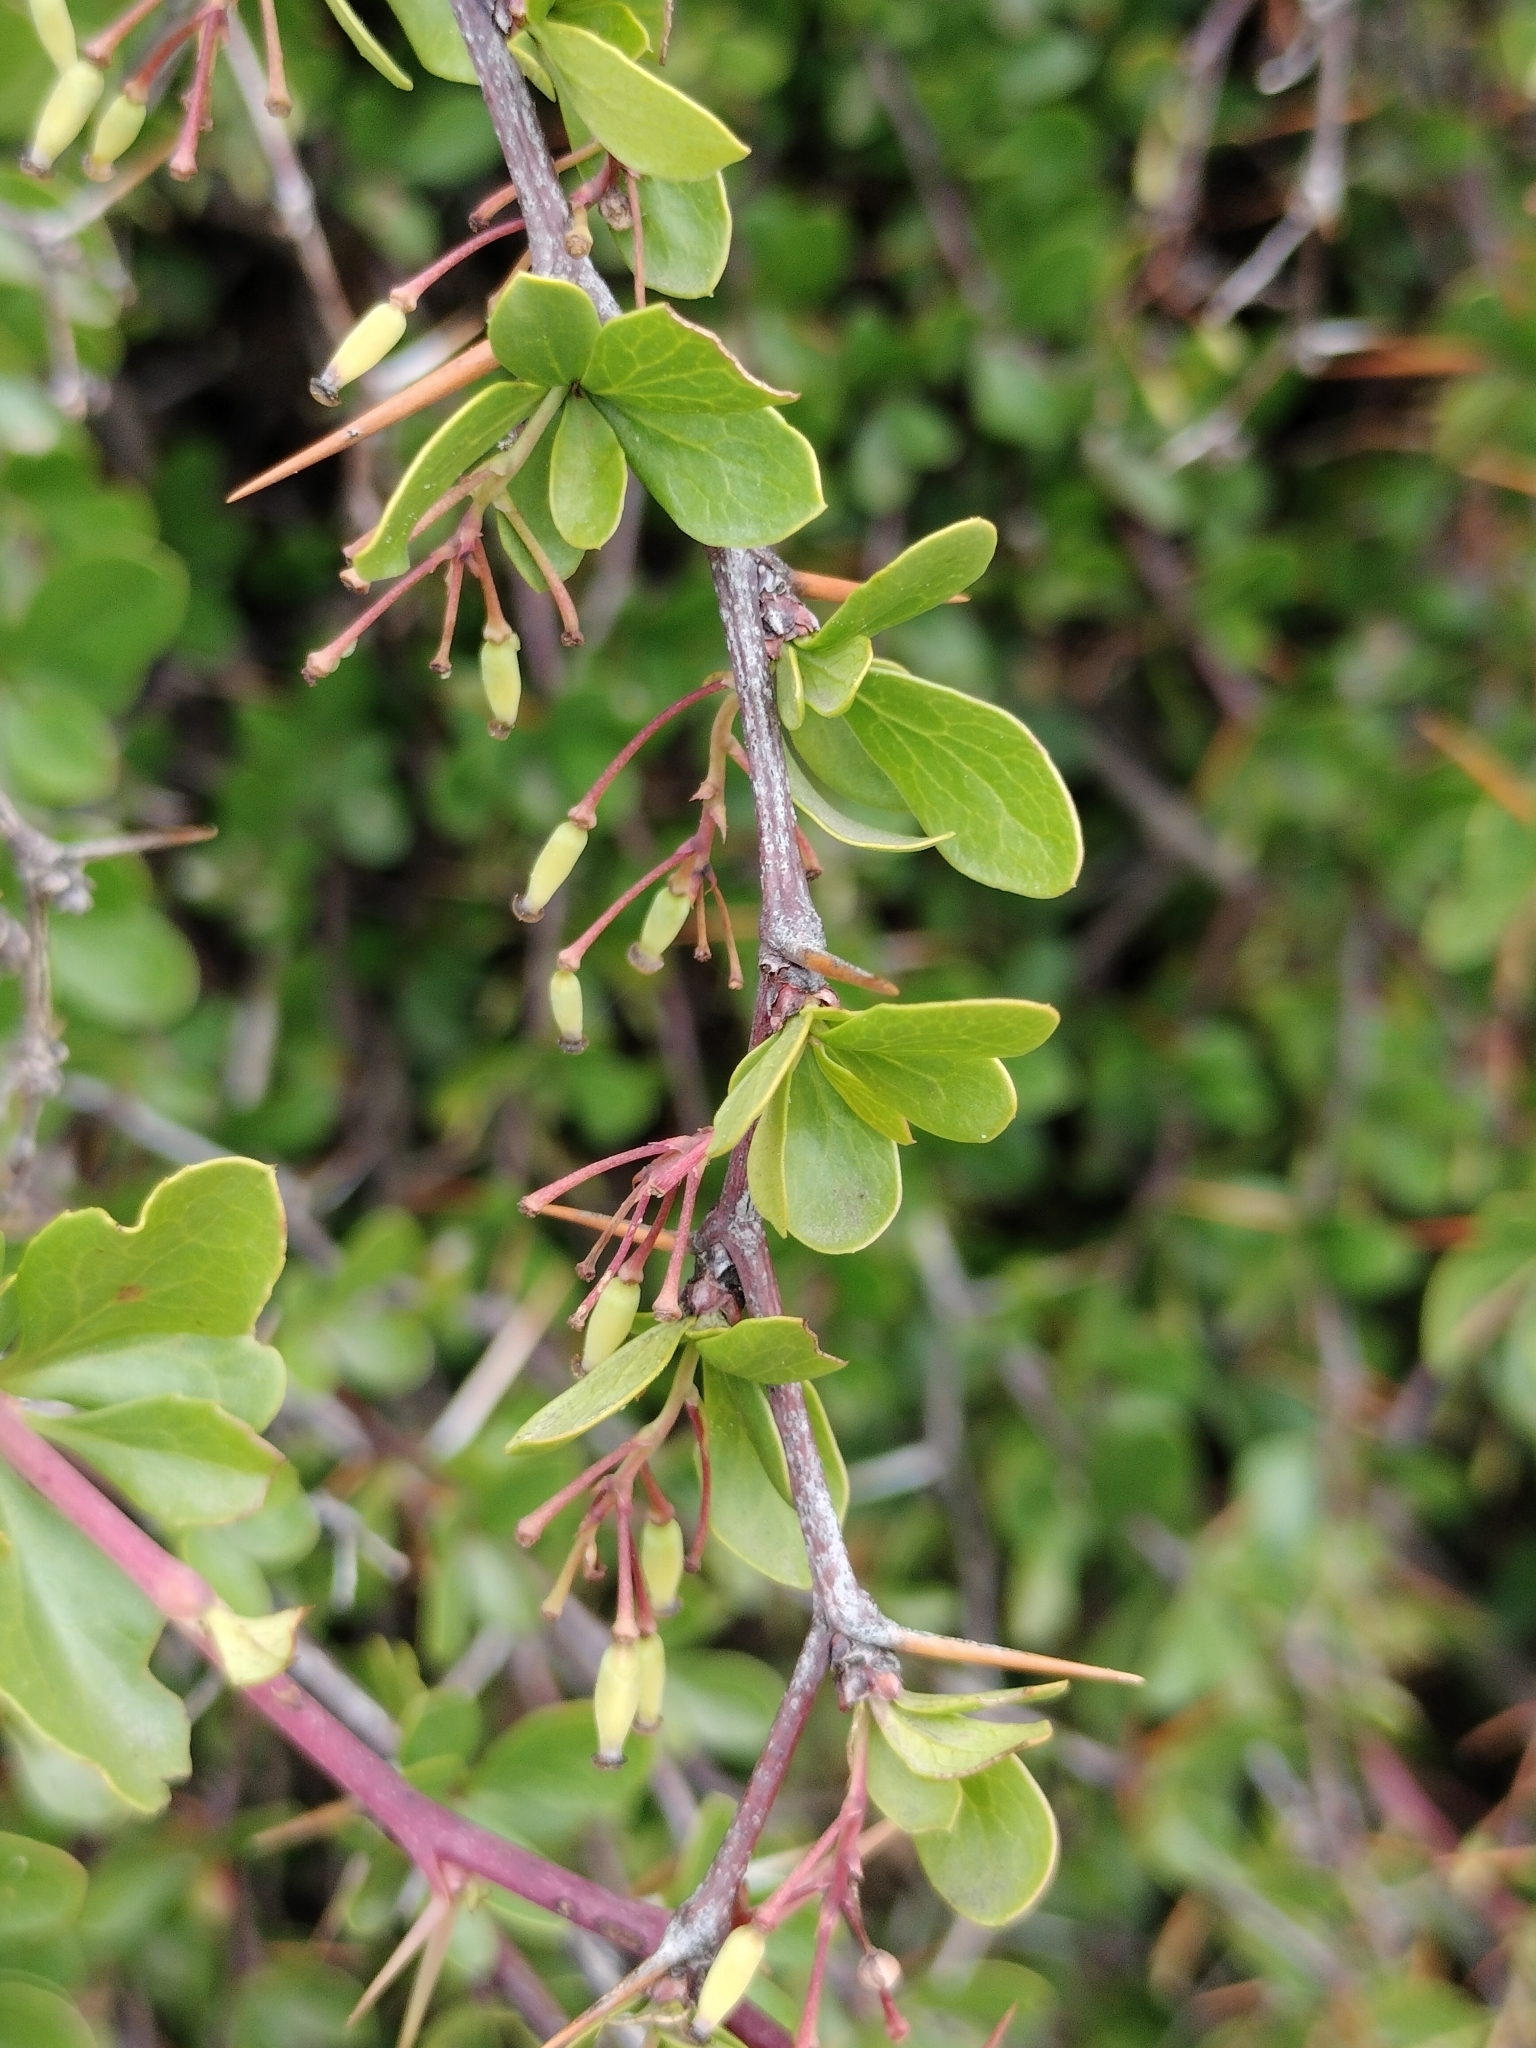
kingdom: Plantae
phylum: Tracheophyta
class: Magnoliopsida
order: Ranunculales
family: Berberidaceae
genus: Berberis
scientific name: Berberis hispanica
